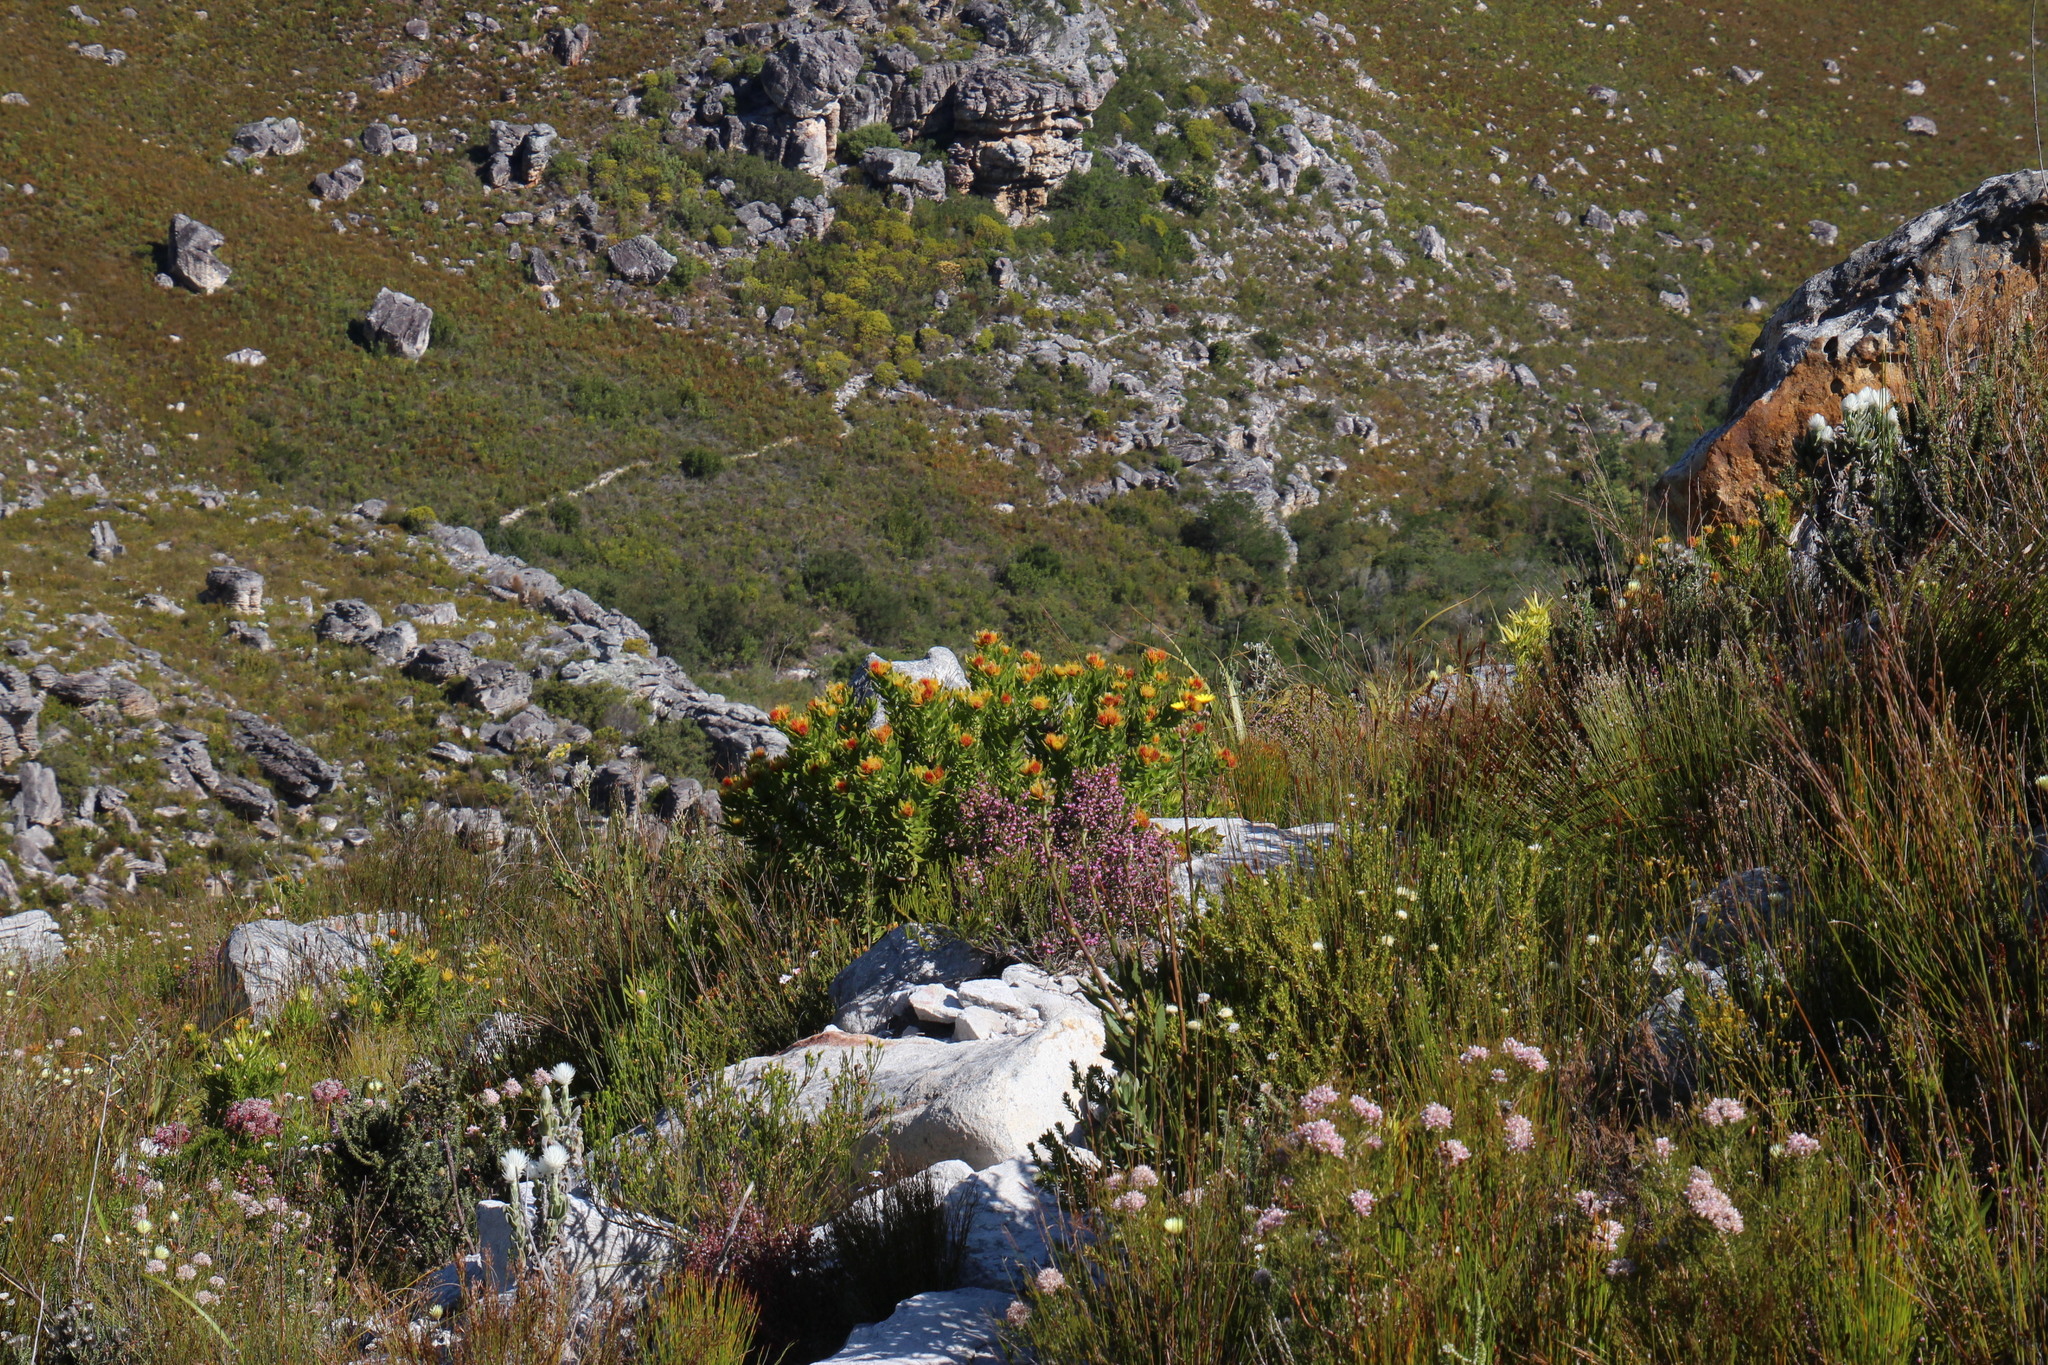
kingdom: Plantae
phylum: Tracheophyta
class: Magnoliopsida
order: Proteales
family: Proteaceae
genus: Leucospermum
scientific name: Leucospermum oleifolium
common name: Matches
